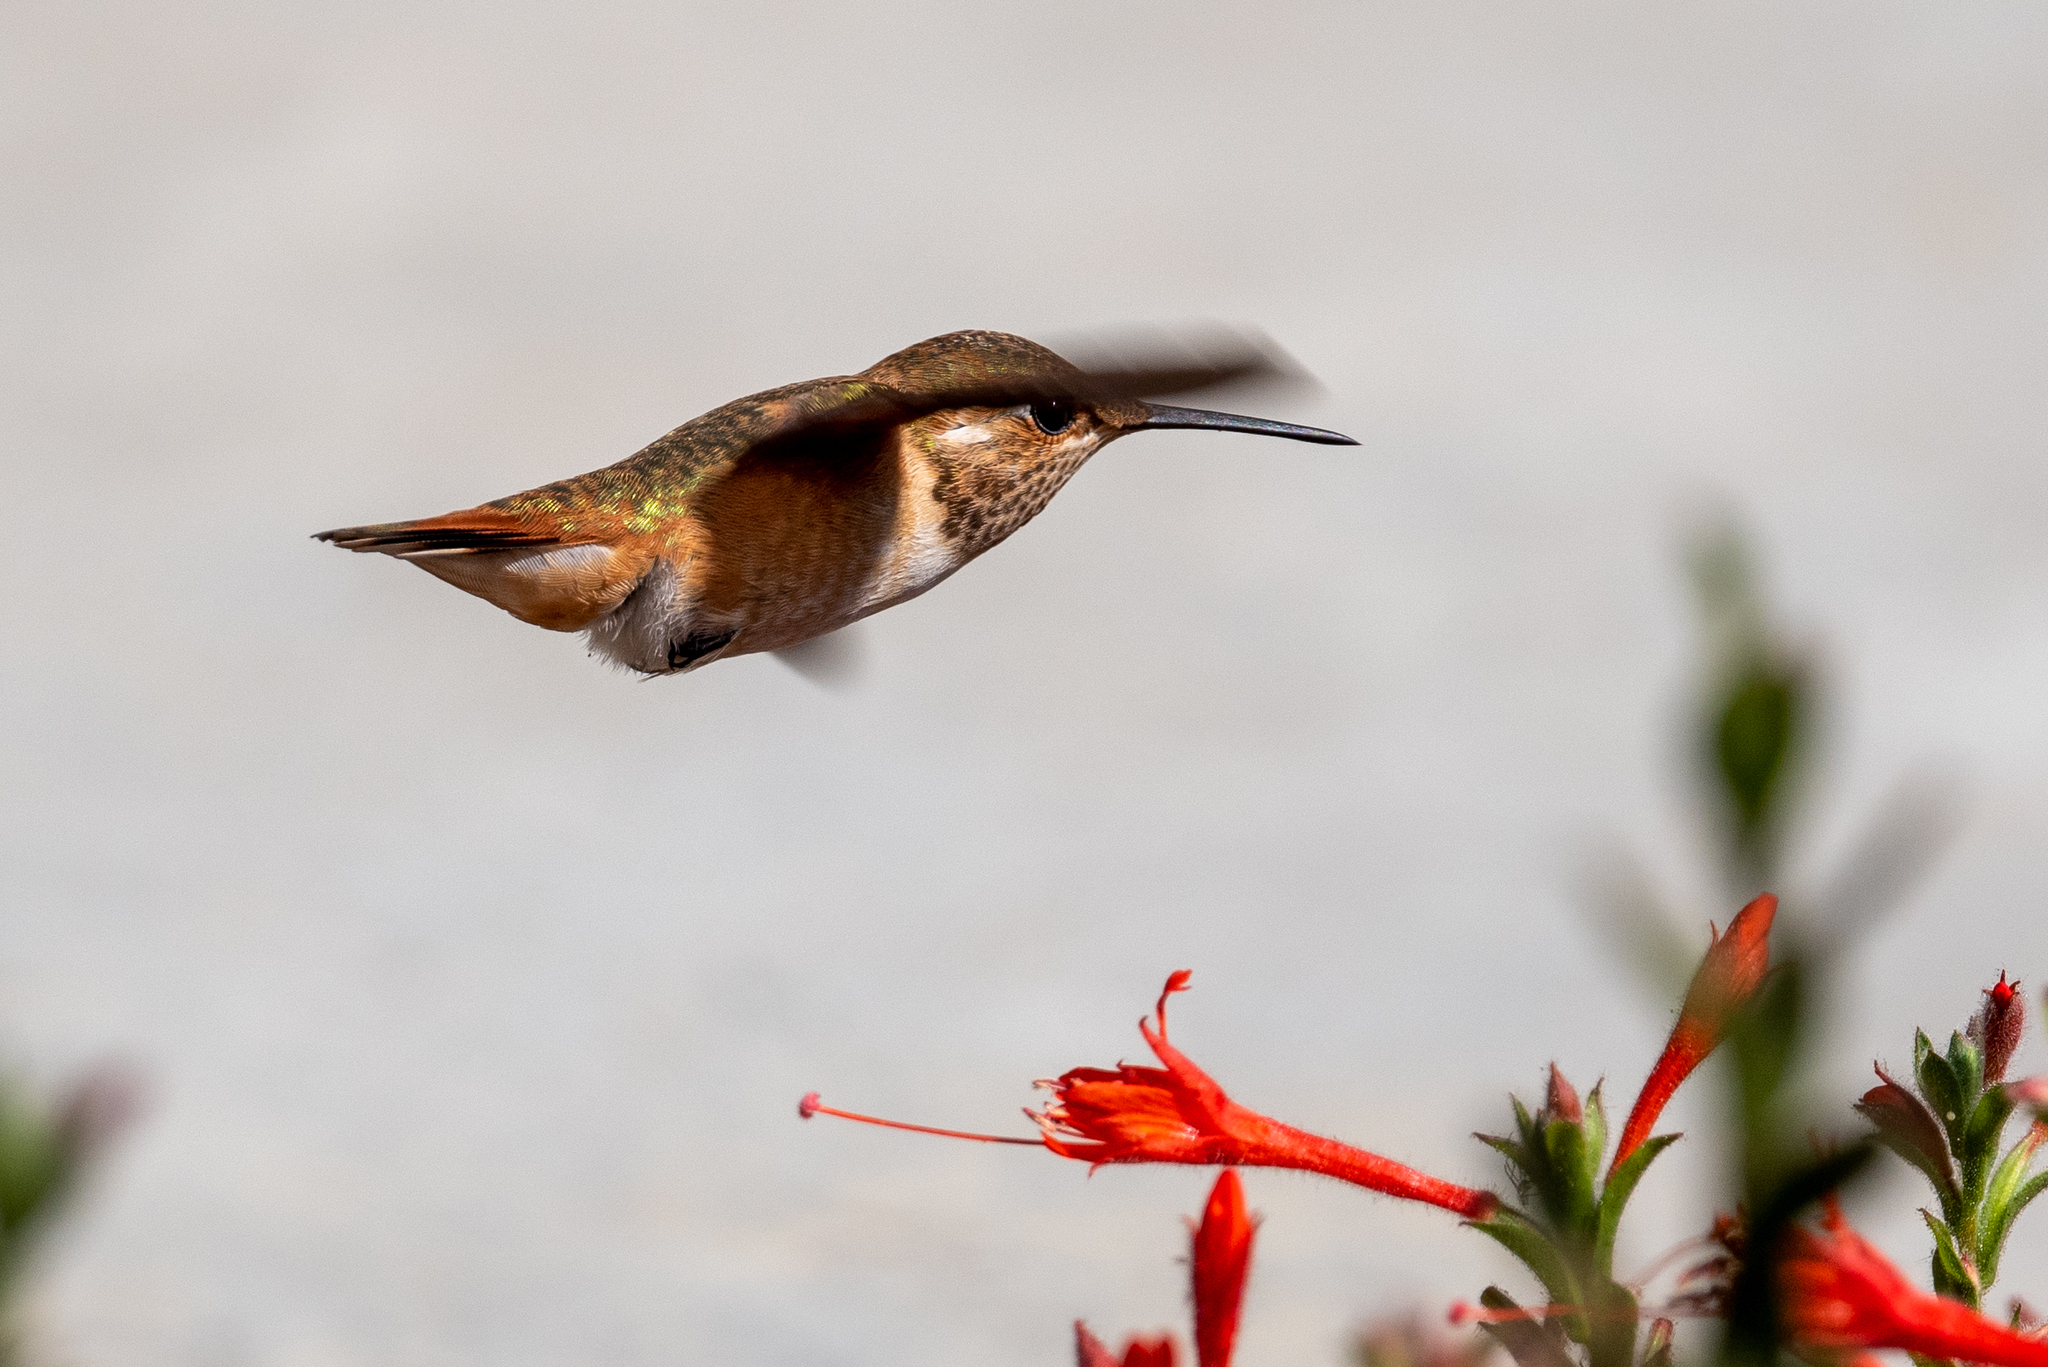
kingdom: Animalia
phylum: Chordata
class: Aves
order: Apodiformes
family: Trochilidae
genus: Selasphorus
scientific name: Selasphorus rufus
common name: Rufous hummingbird
